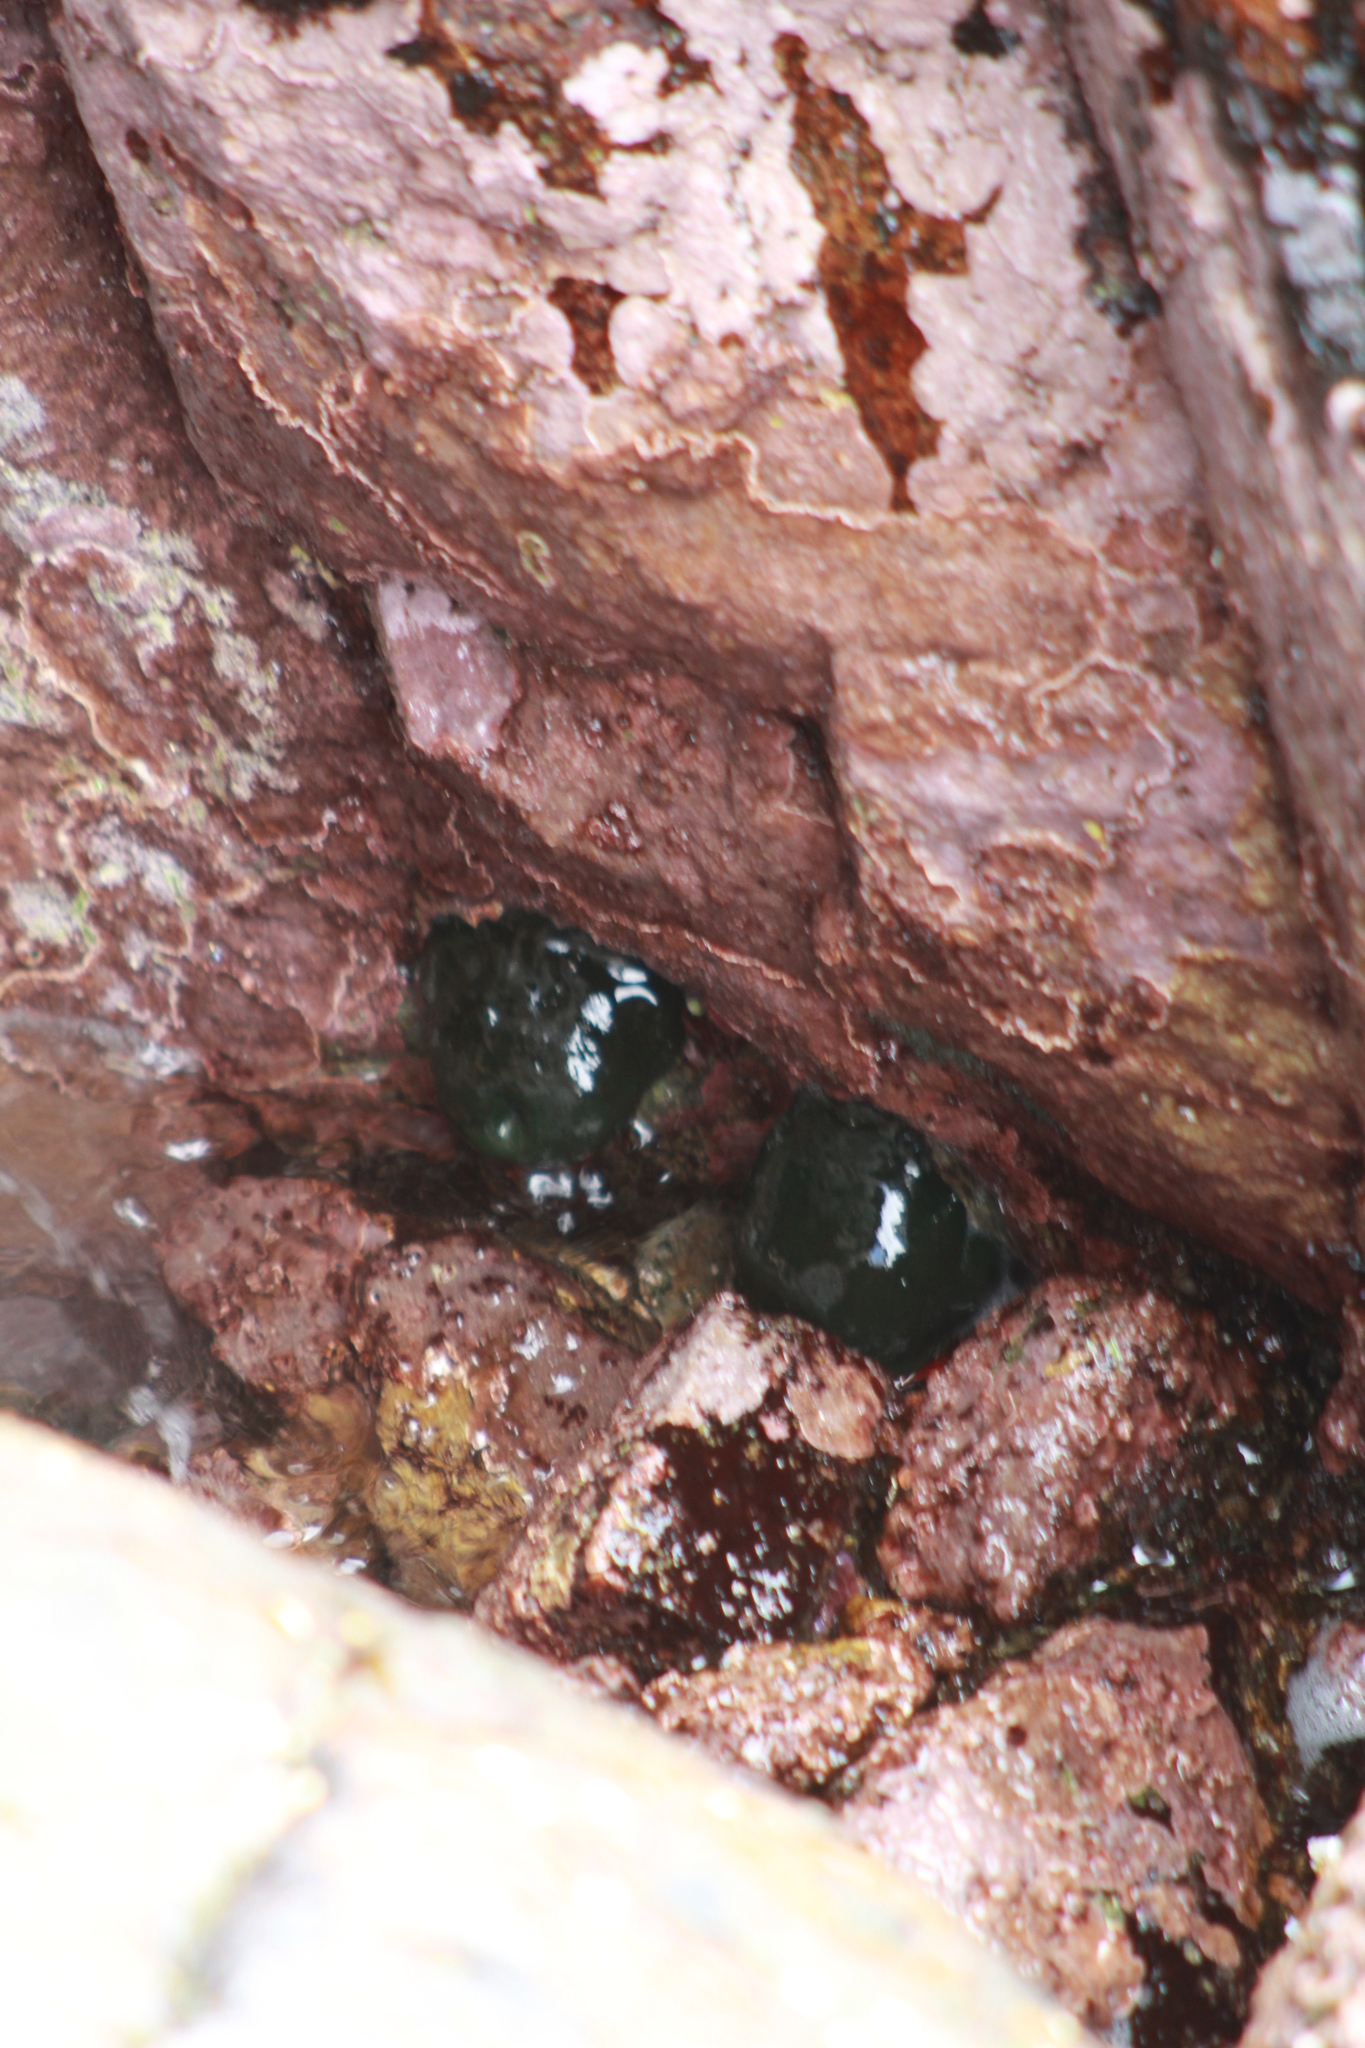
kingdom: Animalia
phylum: Cnidaria
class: Anthozoa
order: Actiniaria
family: Actiniidae
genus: Phymactis
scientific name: Phymactis papillosa
